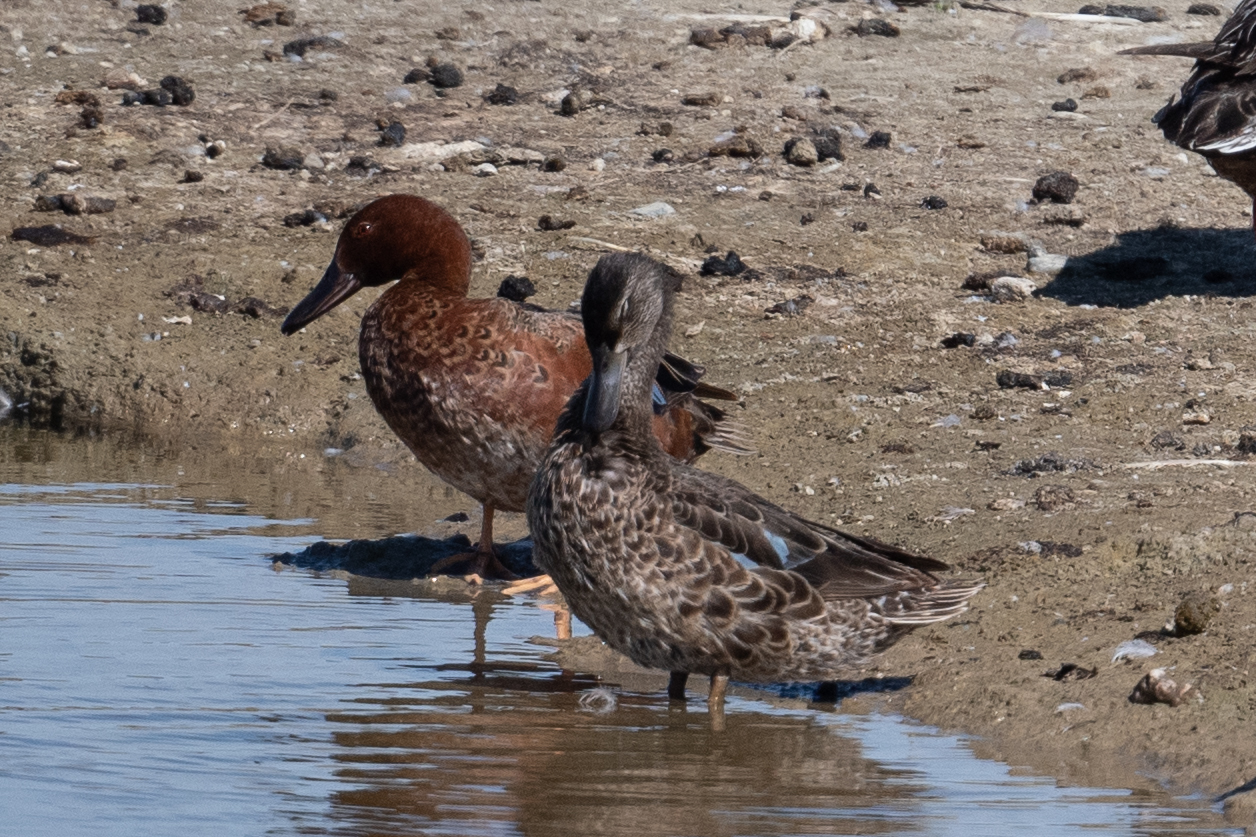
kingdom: Animalia
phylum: Chordata
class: Aves
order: Anseriformes
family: Anatidae
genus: Spatula
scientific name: Spatula cyanoptera
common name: Cinnamon teal
